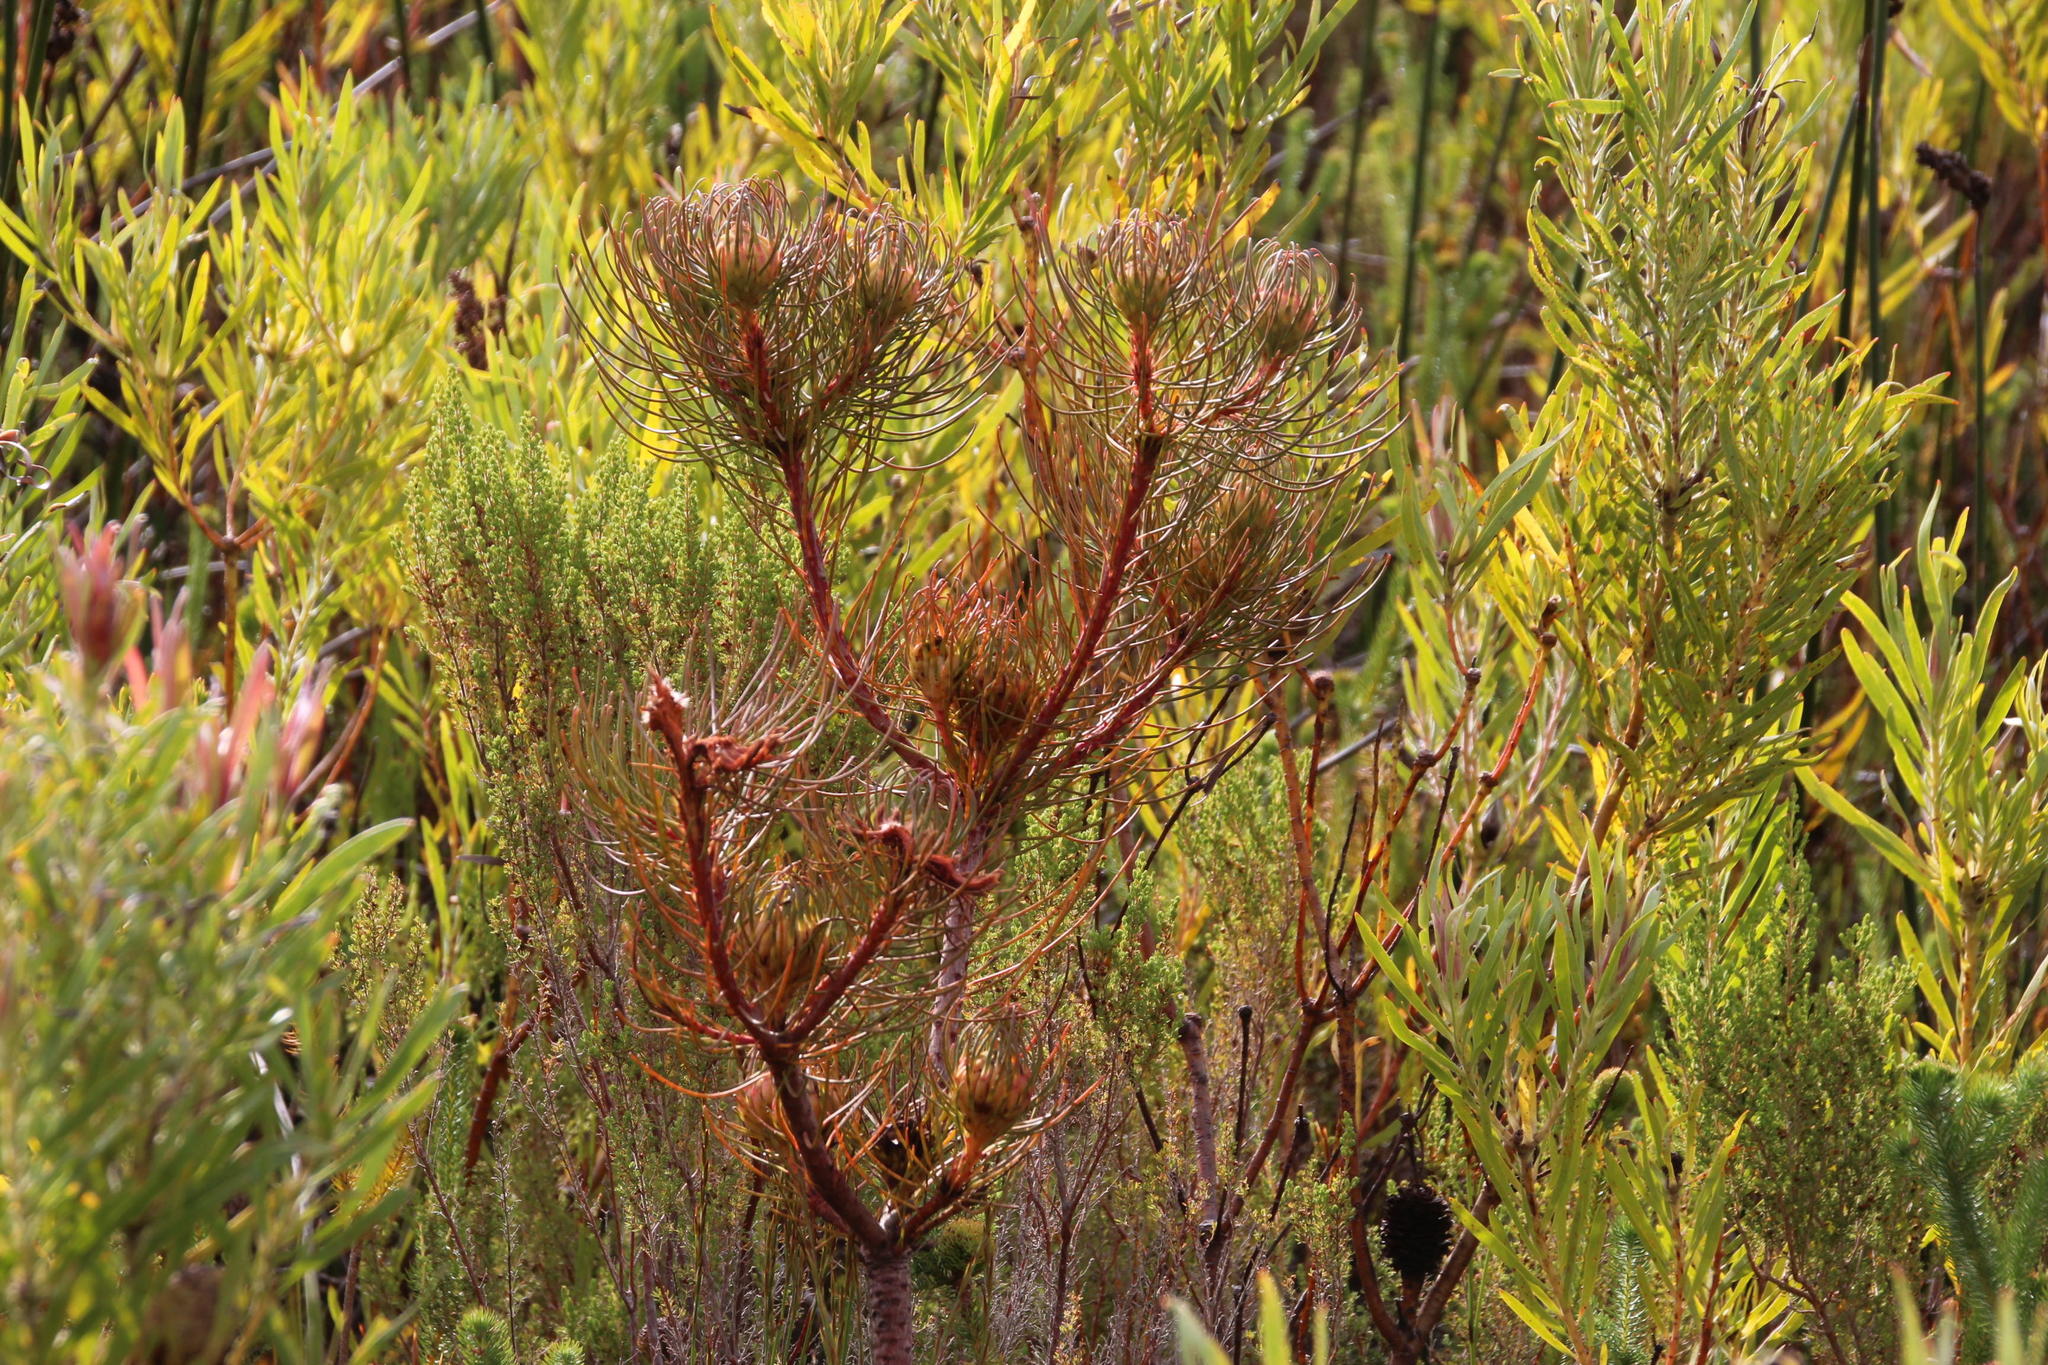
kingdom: Plantae
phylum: Tracheophyta
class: Magnoliopsida
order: Proteales
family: Proteaceae
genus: Aulax
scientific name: Aulax cancellata
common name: Channel-leaf featherbush
